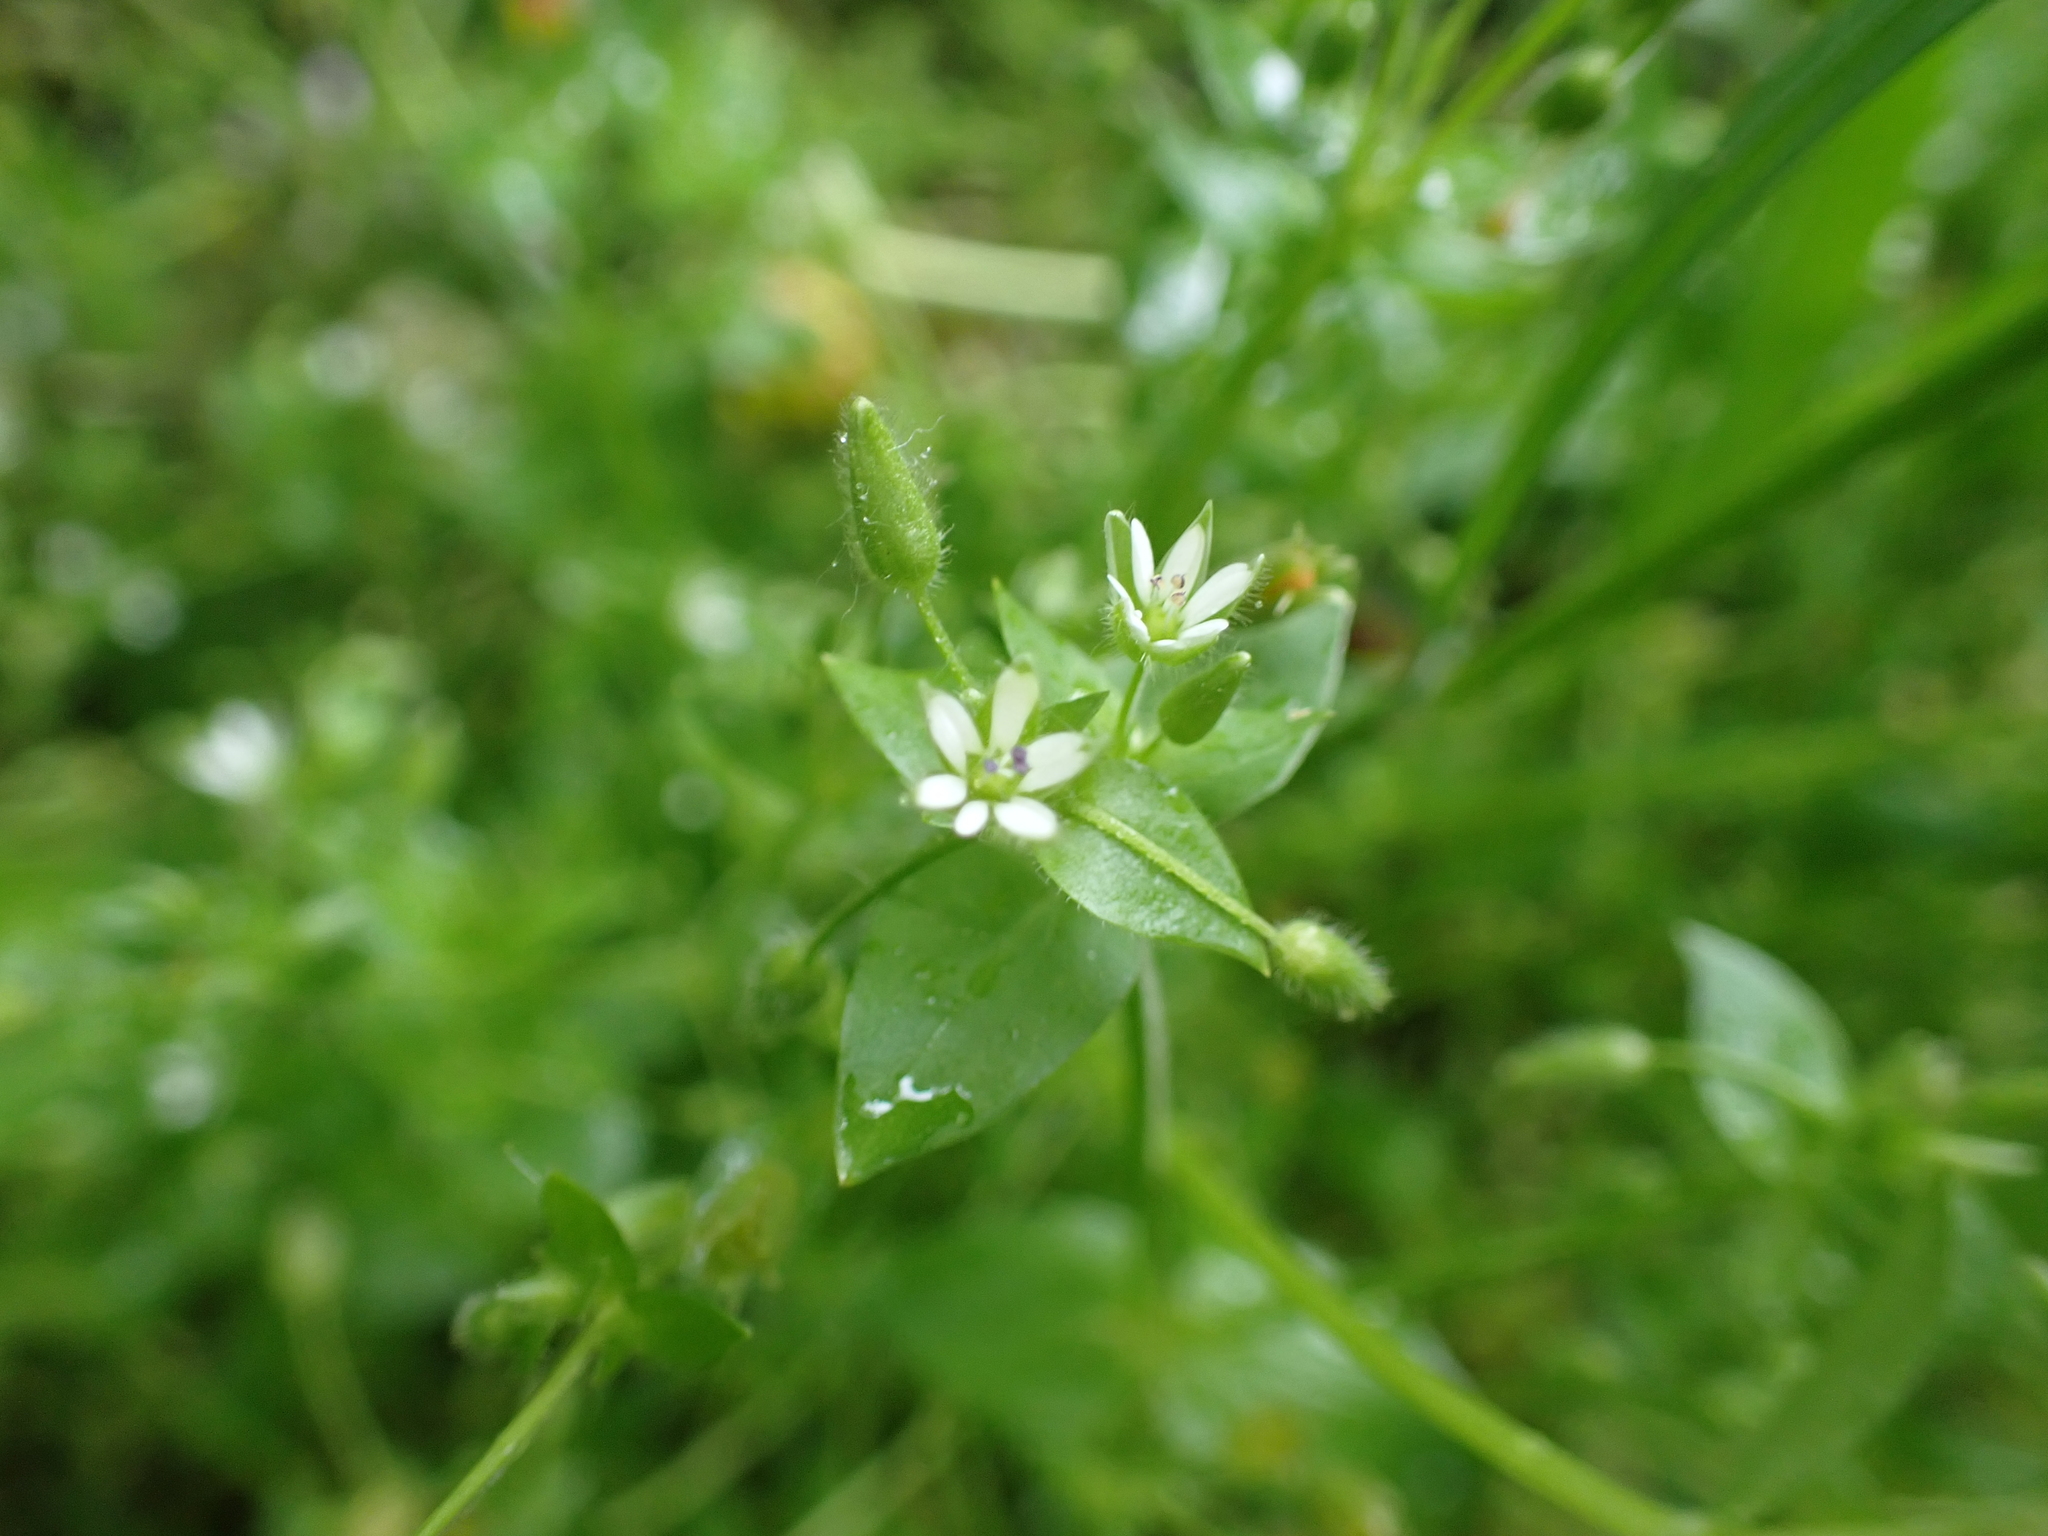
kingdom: Plantae
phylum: Tracheophyta
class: Magnoliopsida
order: Caryophyllales
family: Caryophyllaceae
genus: Stellaria
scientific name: Stellaria ruderalis
